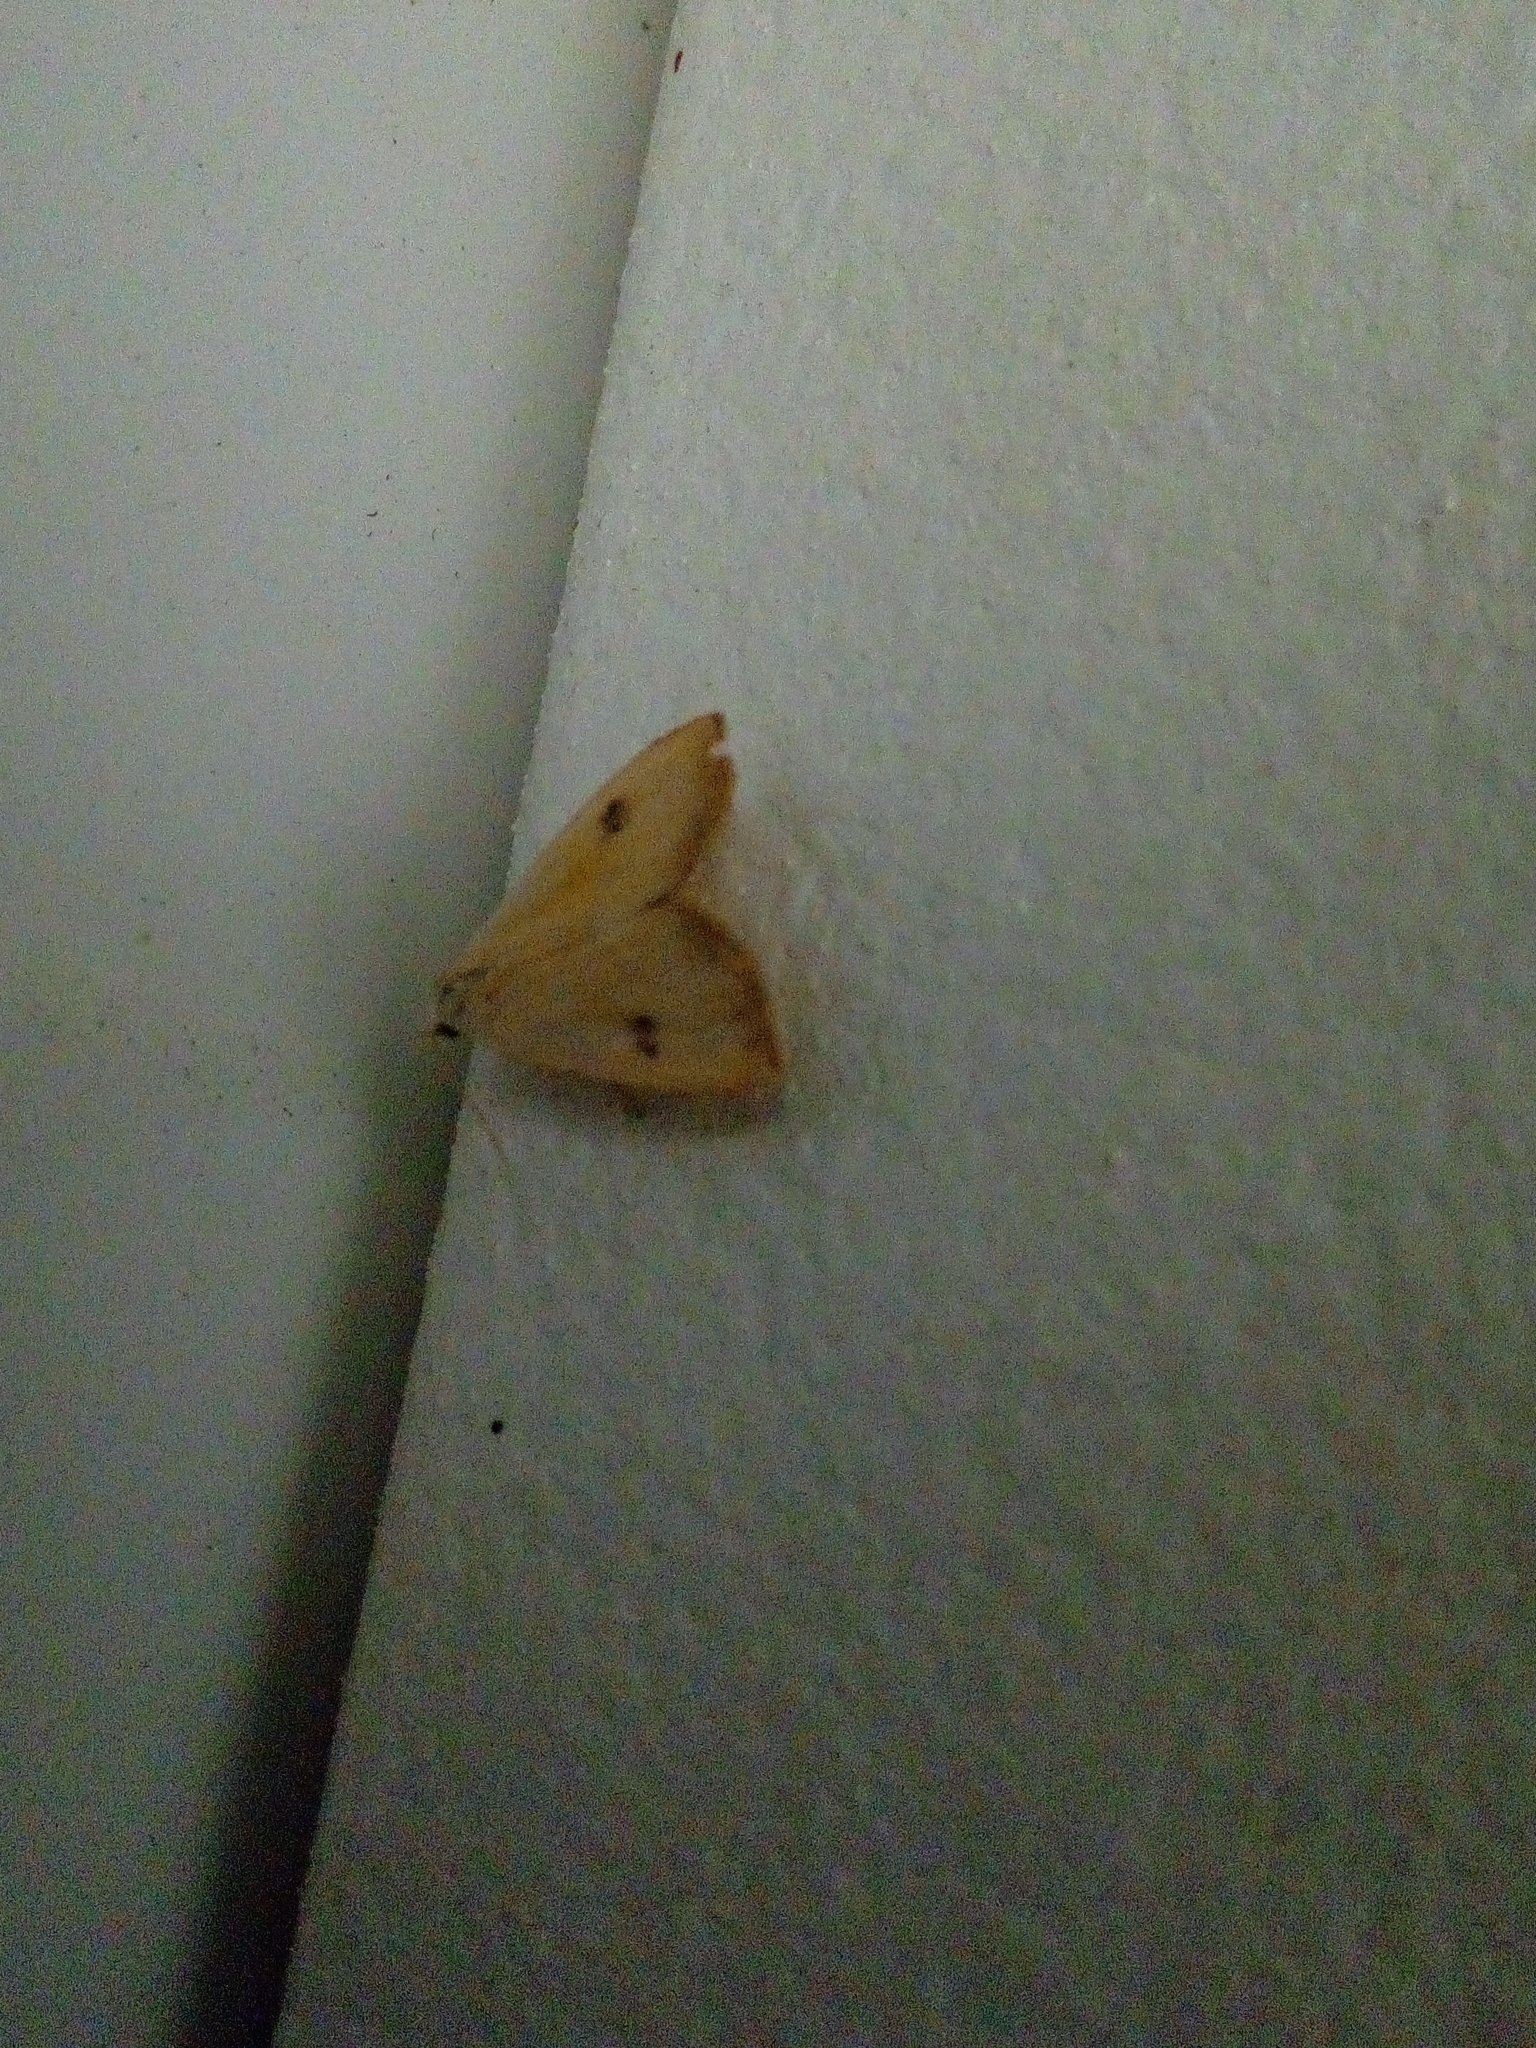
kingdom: Animalia
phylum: Arthropoda
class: Insecta
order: Lepidoptera
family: Erebidae
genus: Rivula
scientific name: Rivula sericealis
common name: Straw dot
